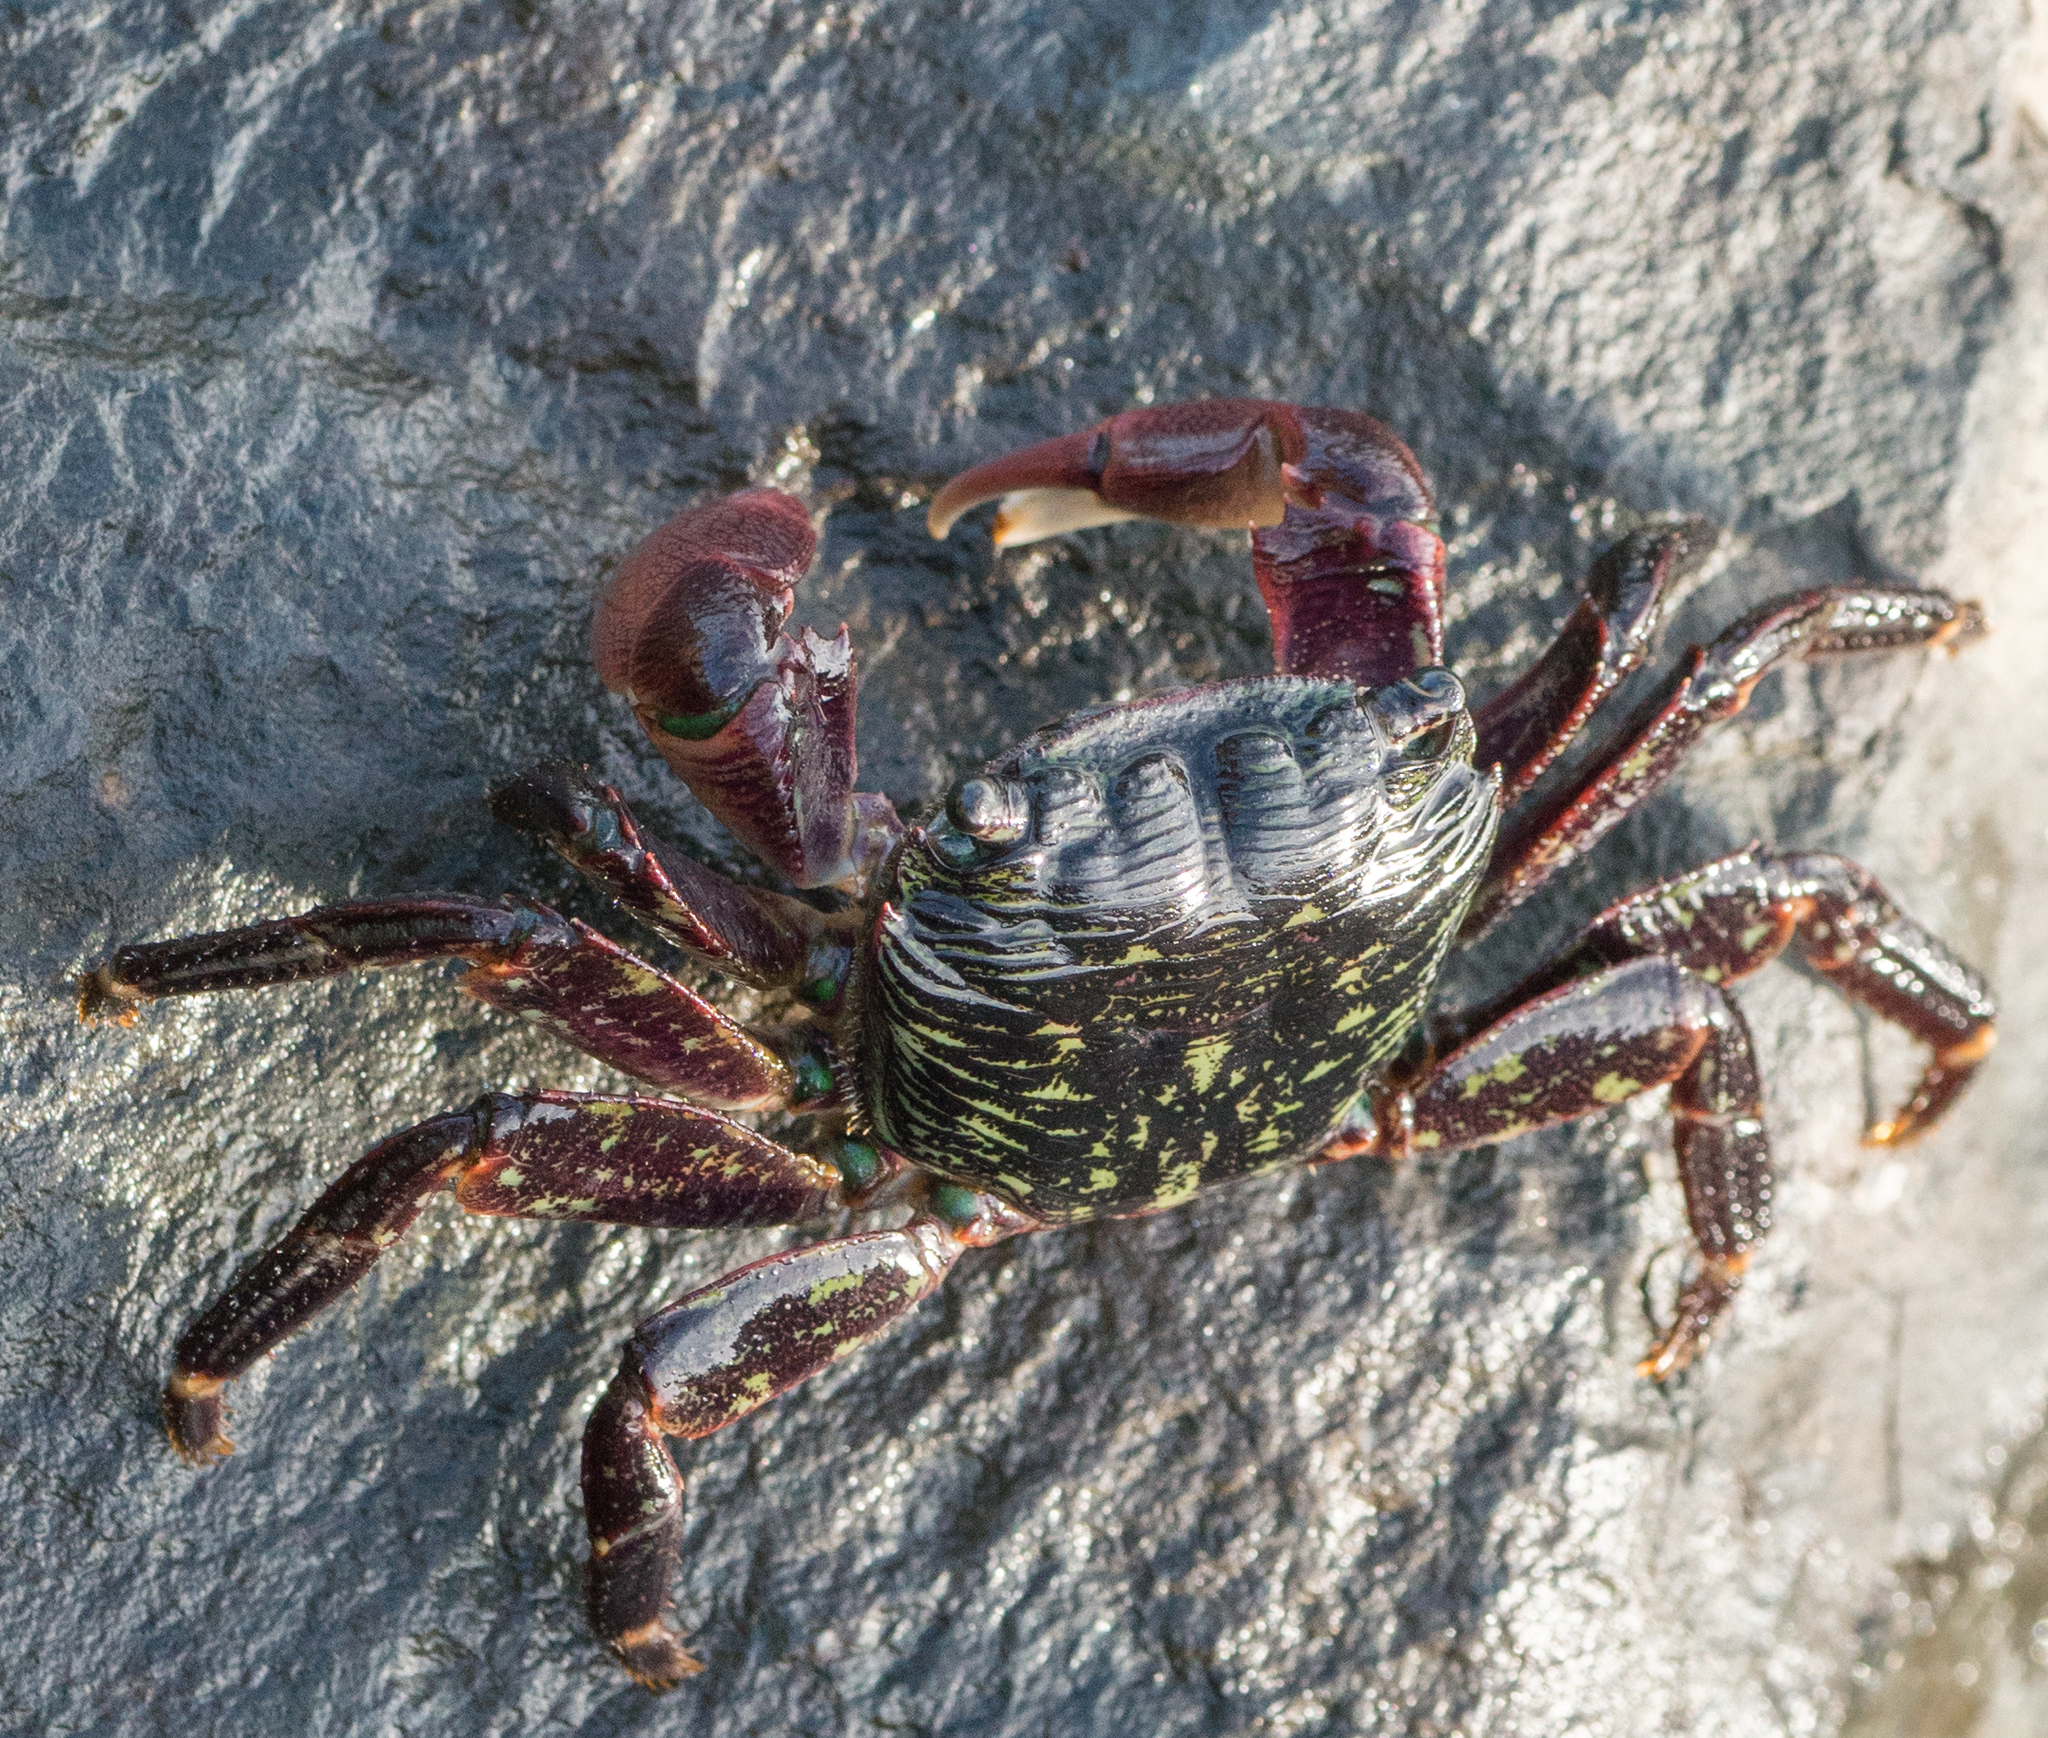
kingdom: Animalia
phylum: Arthropoda
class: Malacostraca
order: Decapoda
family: Grapsidae
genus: Pachygrapsus
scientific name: Pachygrapsus crassipes
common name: Striped shore crab
